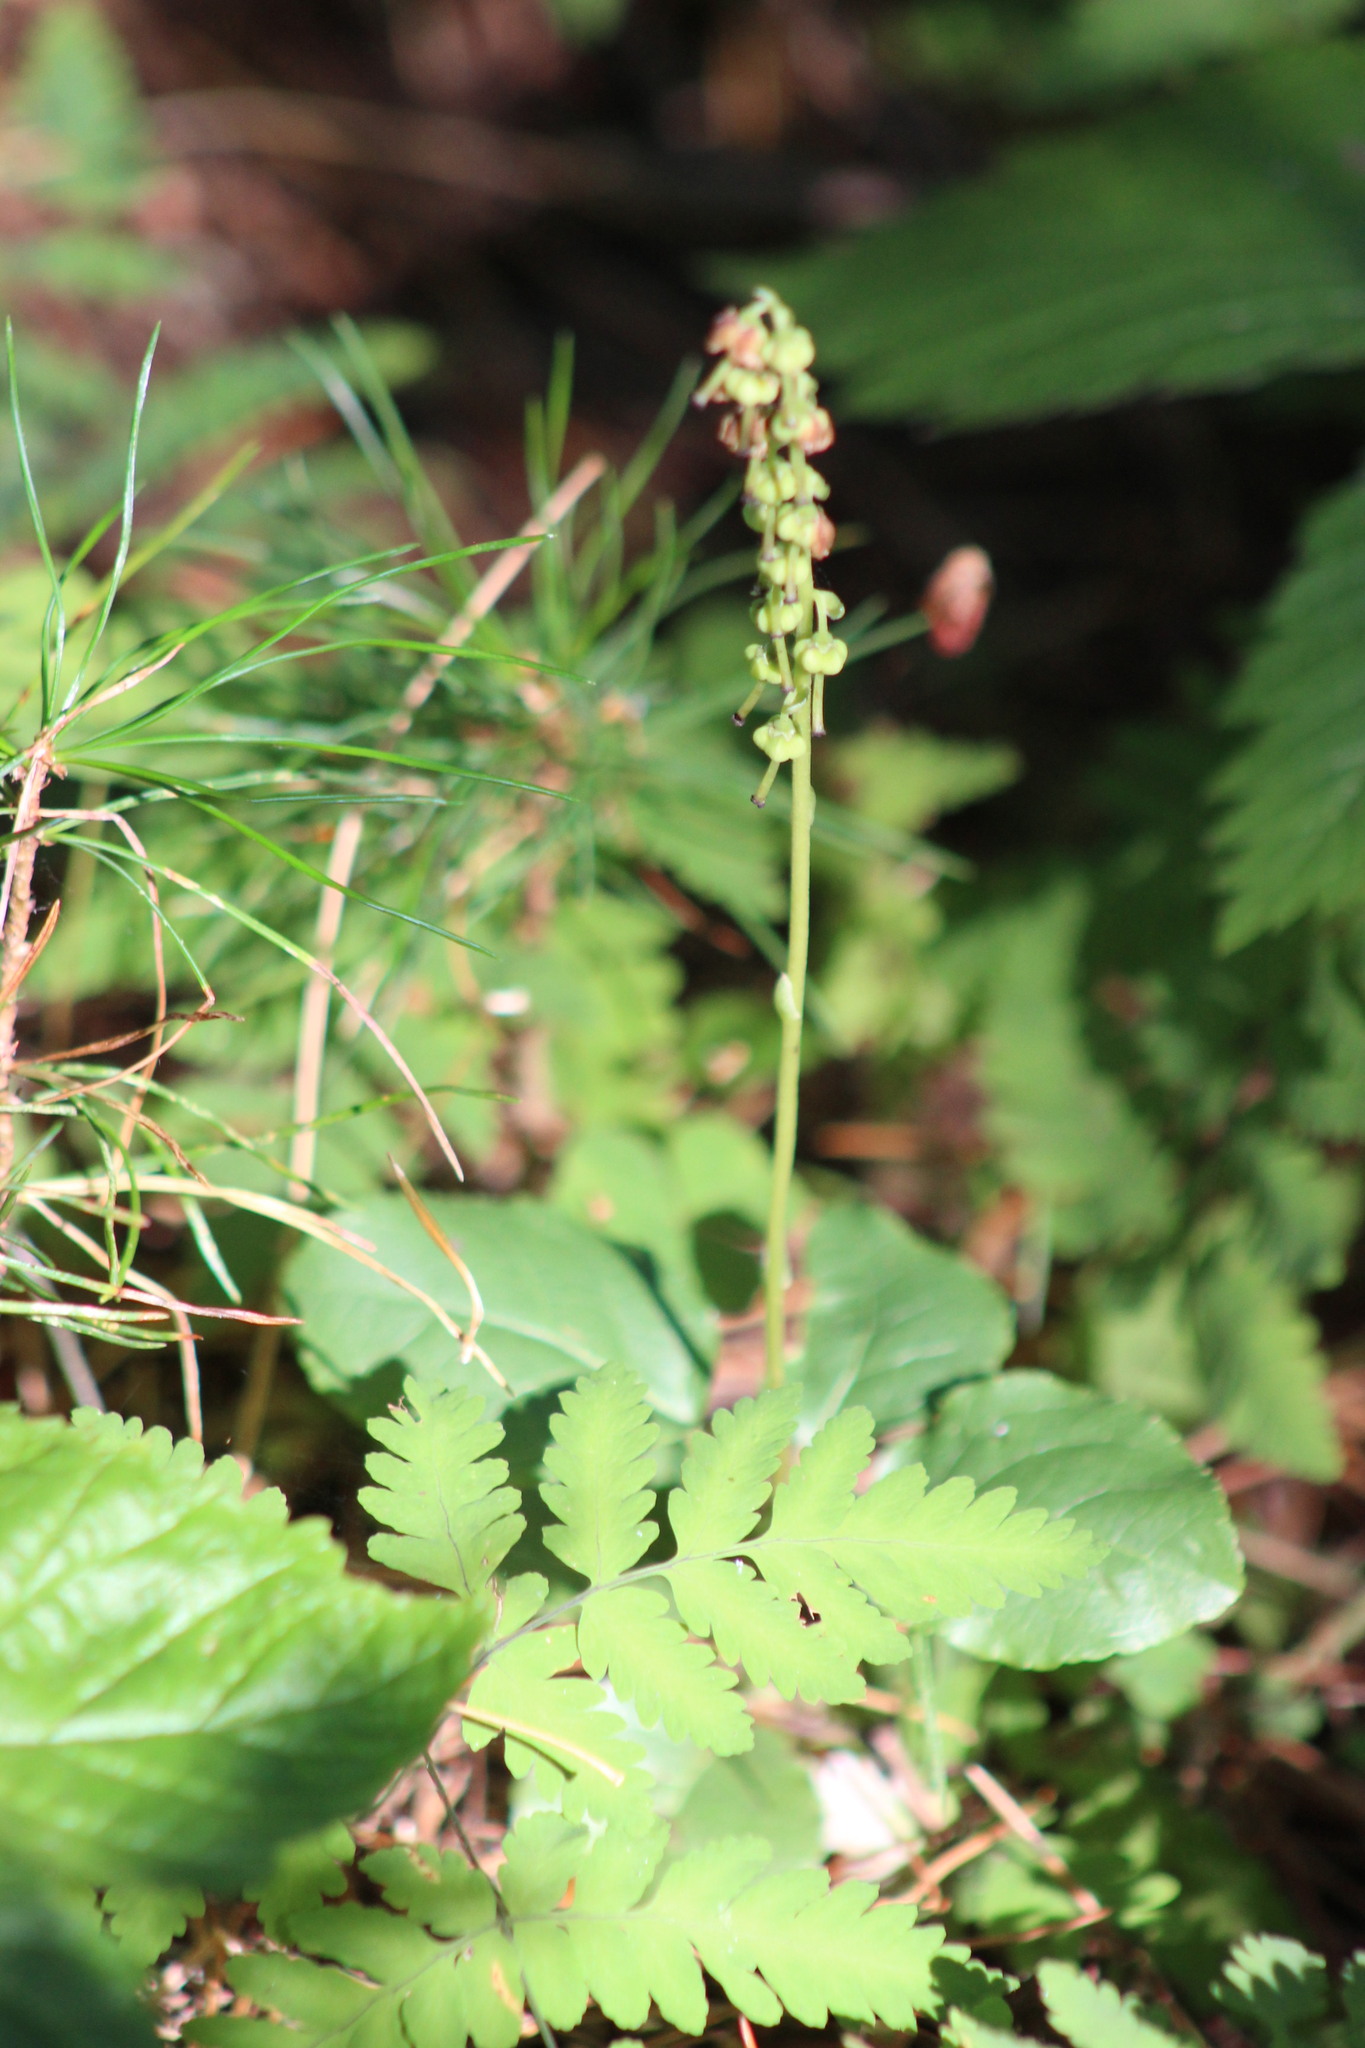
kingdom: Plantae
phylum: Tracheophyta
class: Magnoliopsida
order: Ericales
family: Ericaceae
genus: Orthilia
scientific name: Orthilia secunda
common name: One-sided orthilia
